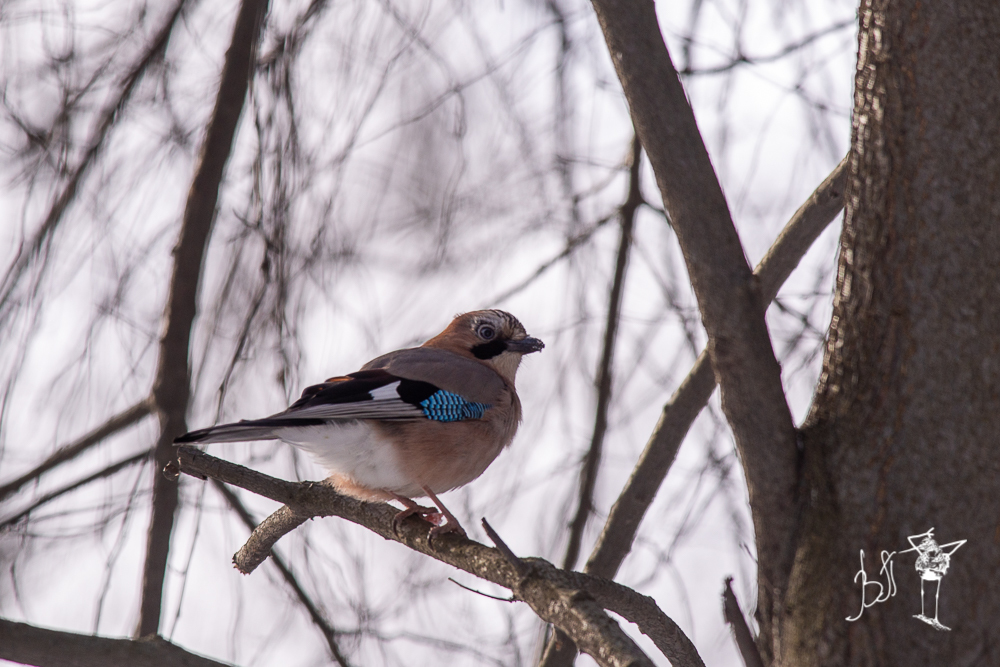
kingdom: Animalia
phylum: Chordata
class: Aves
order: Passeriformes
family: Corvidae
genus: Garrulus
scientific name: Garrulus glandarius
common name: Eurasian jay
